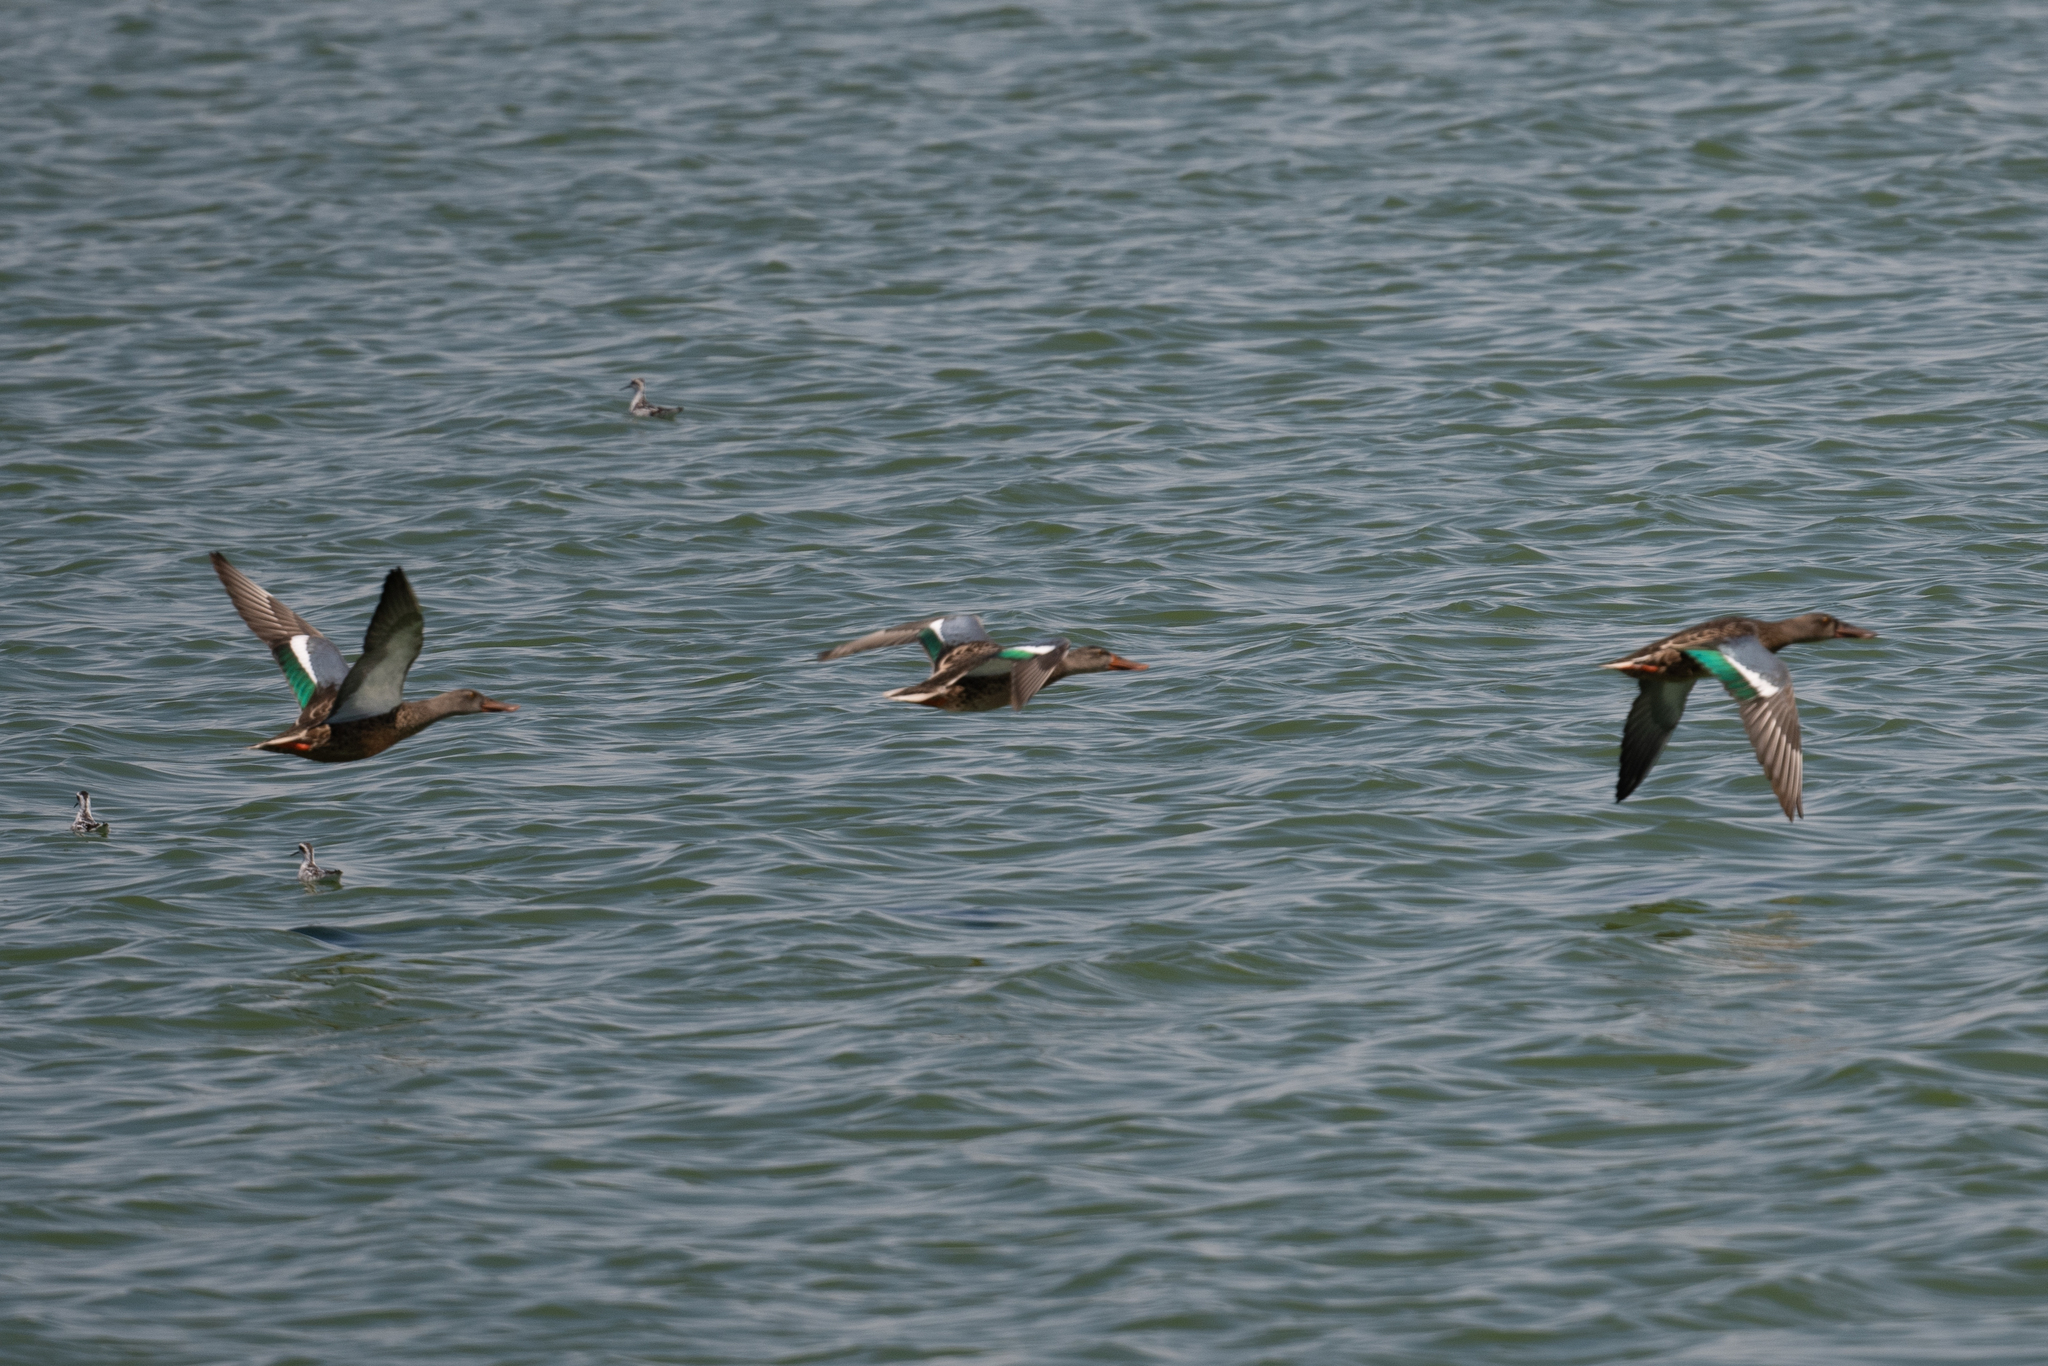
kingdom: Animalia
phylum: Chordata
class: Aves
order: Anseriformes
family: Anatidae
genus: Spatula
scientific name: Spatula clypeata
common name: Northern shoveler
